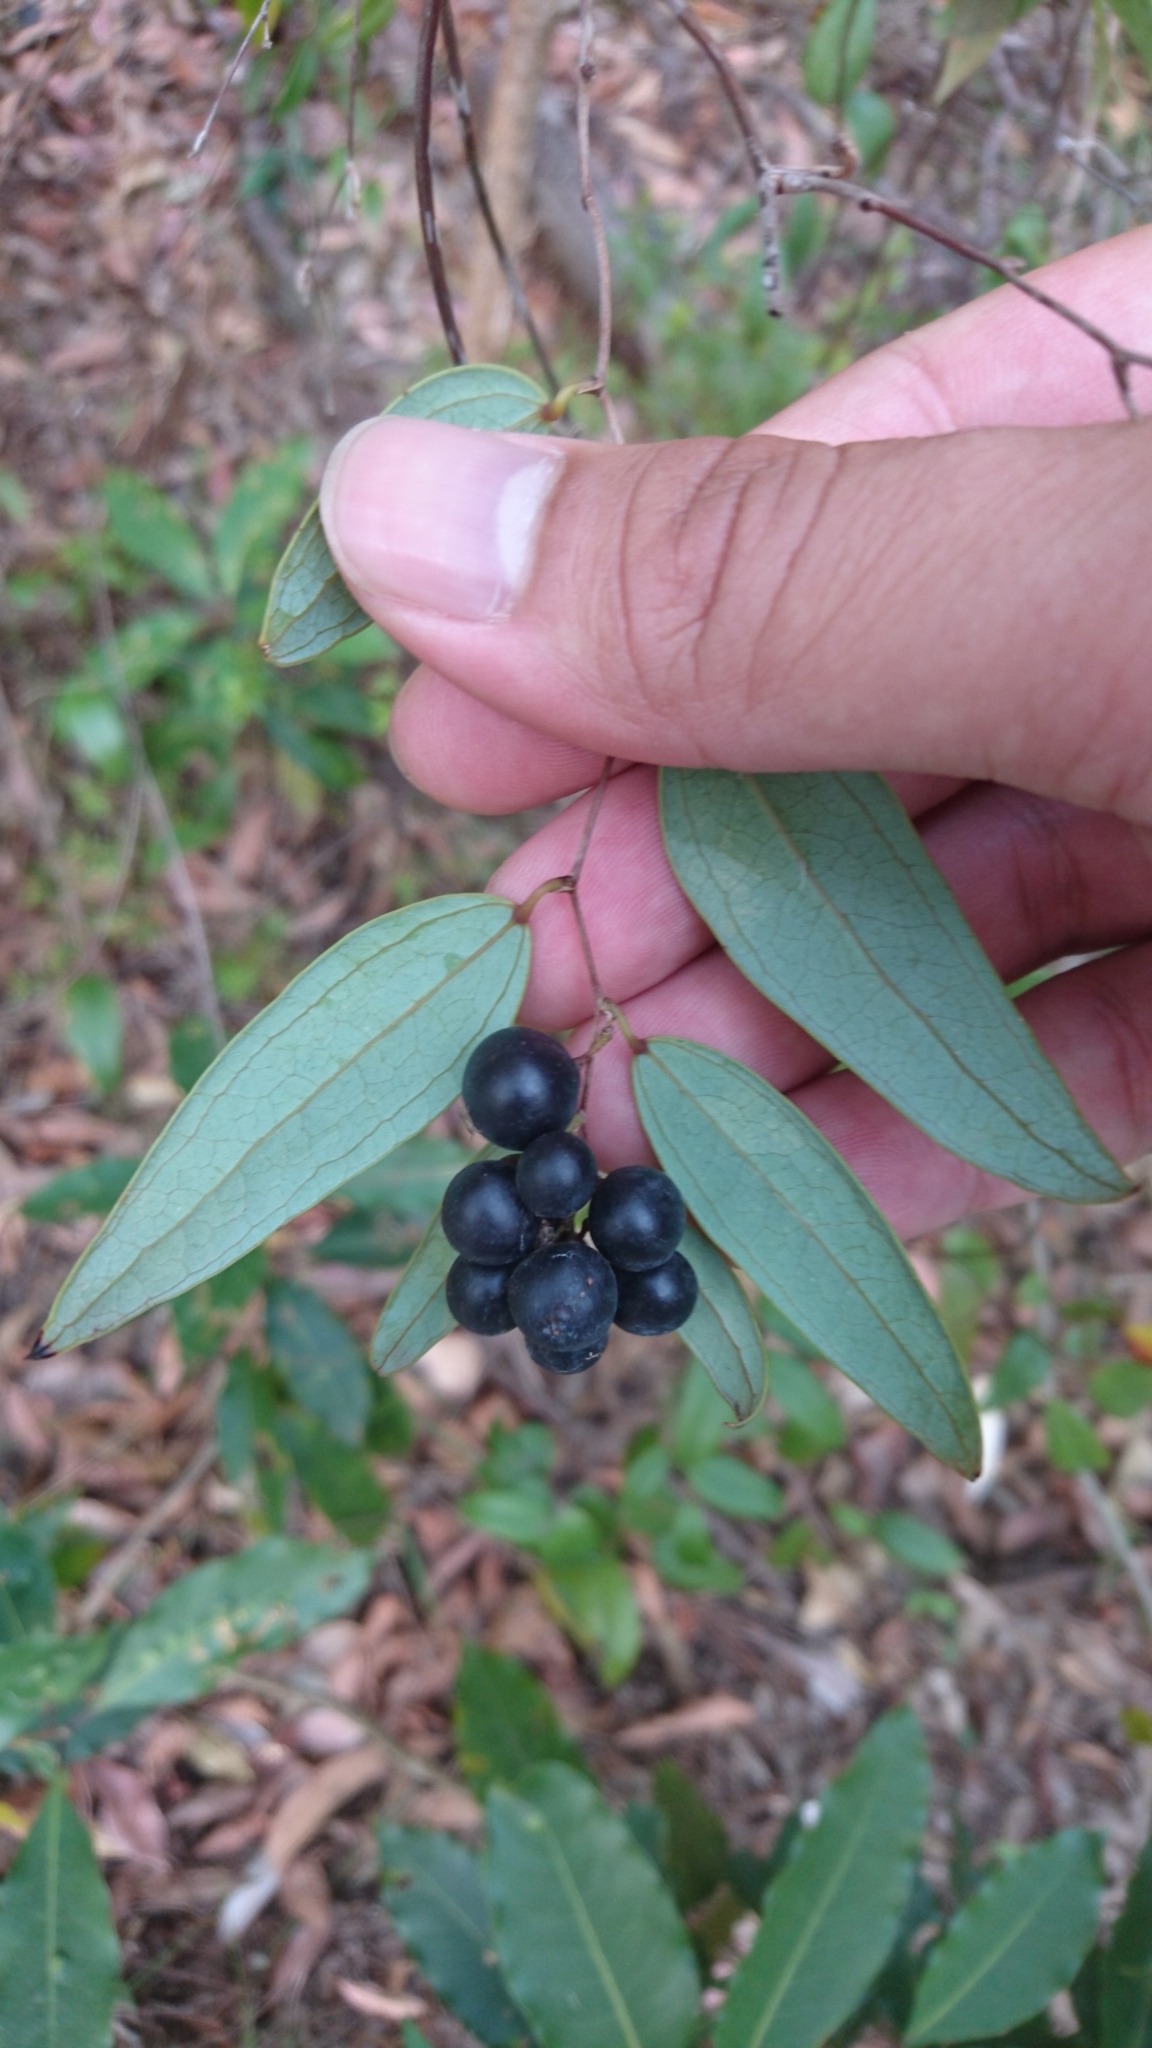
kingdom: Plantae
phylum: Tracheophyta
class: Liliopsida
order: Liliales
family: Smilacaceae
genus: Smilax
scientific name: Smilax glyciphylla
